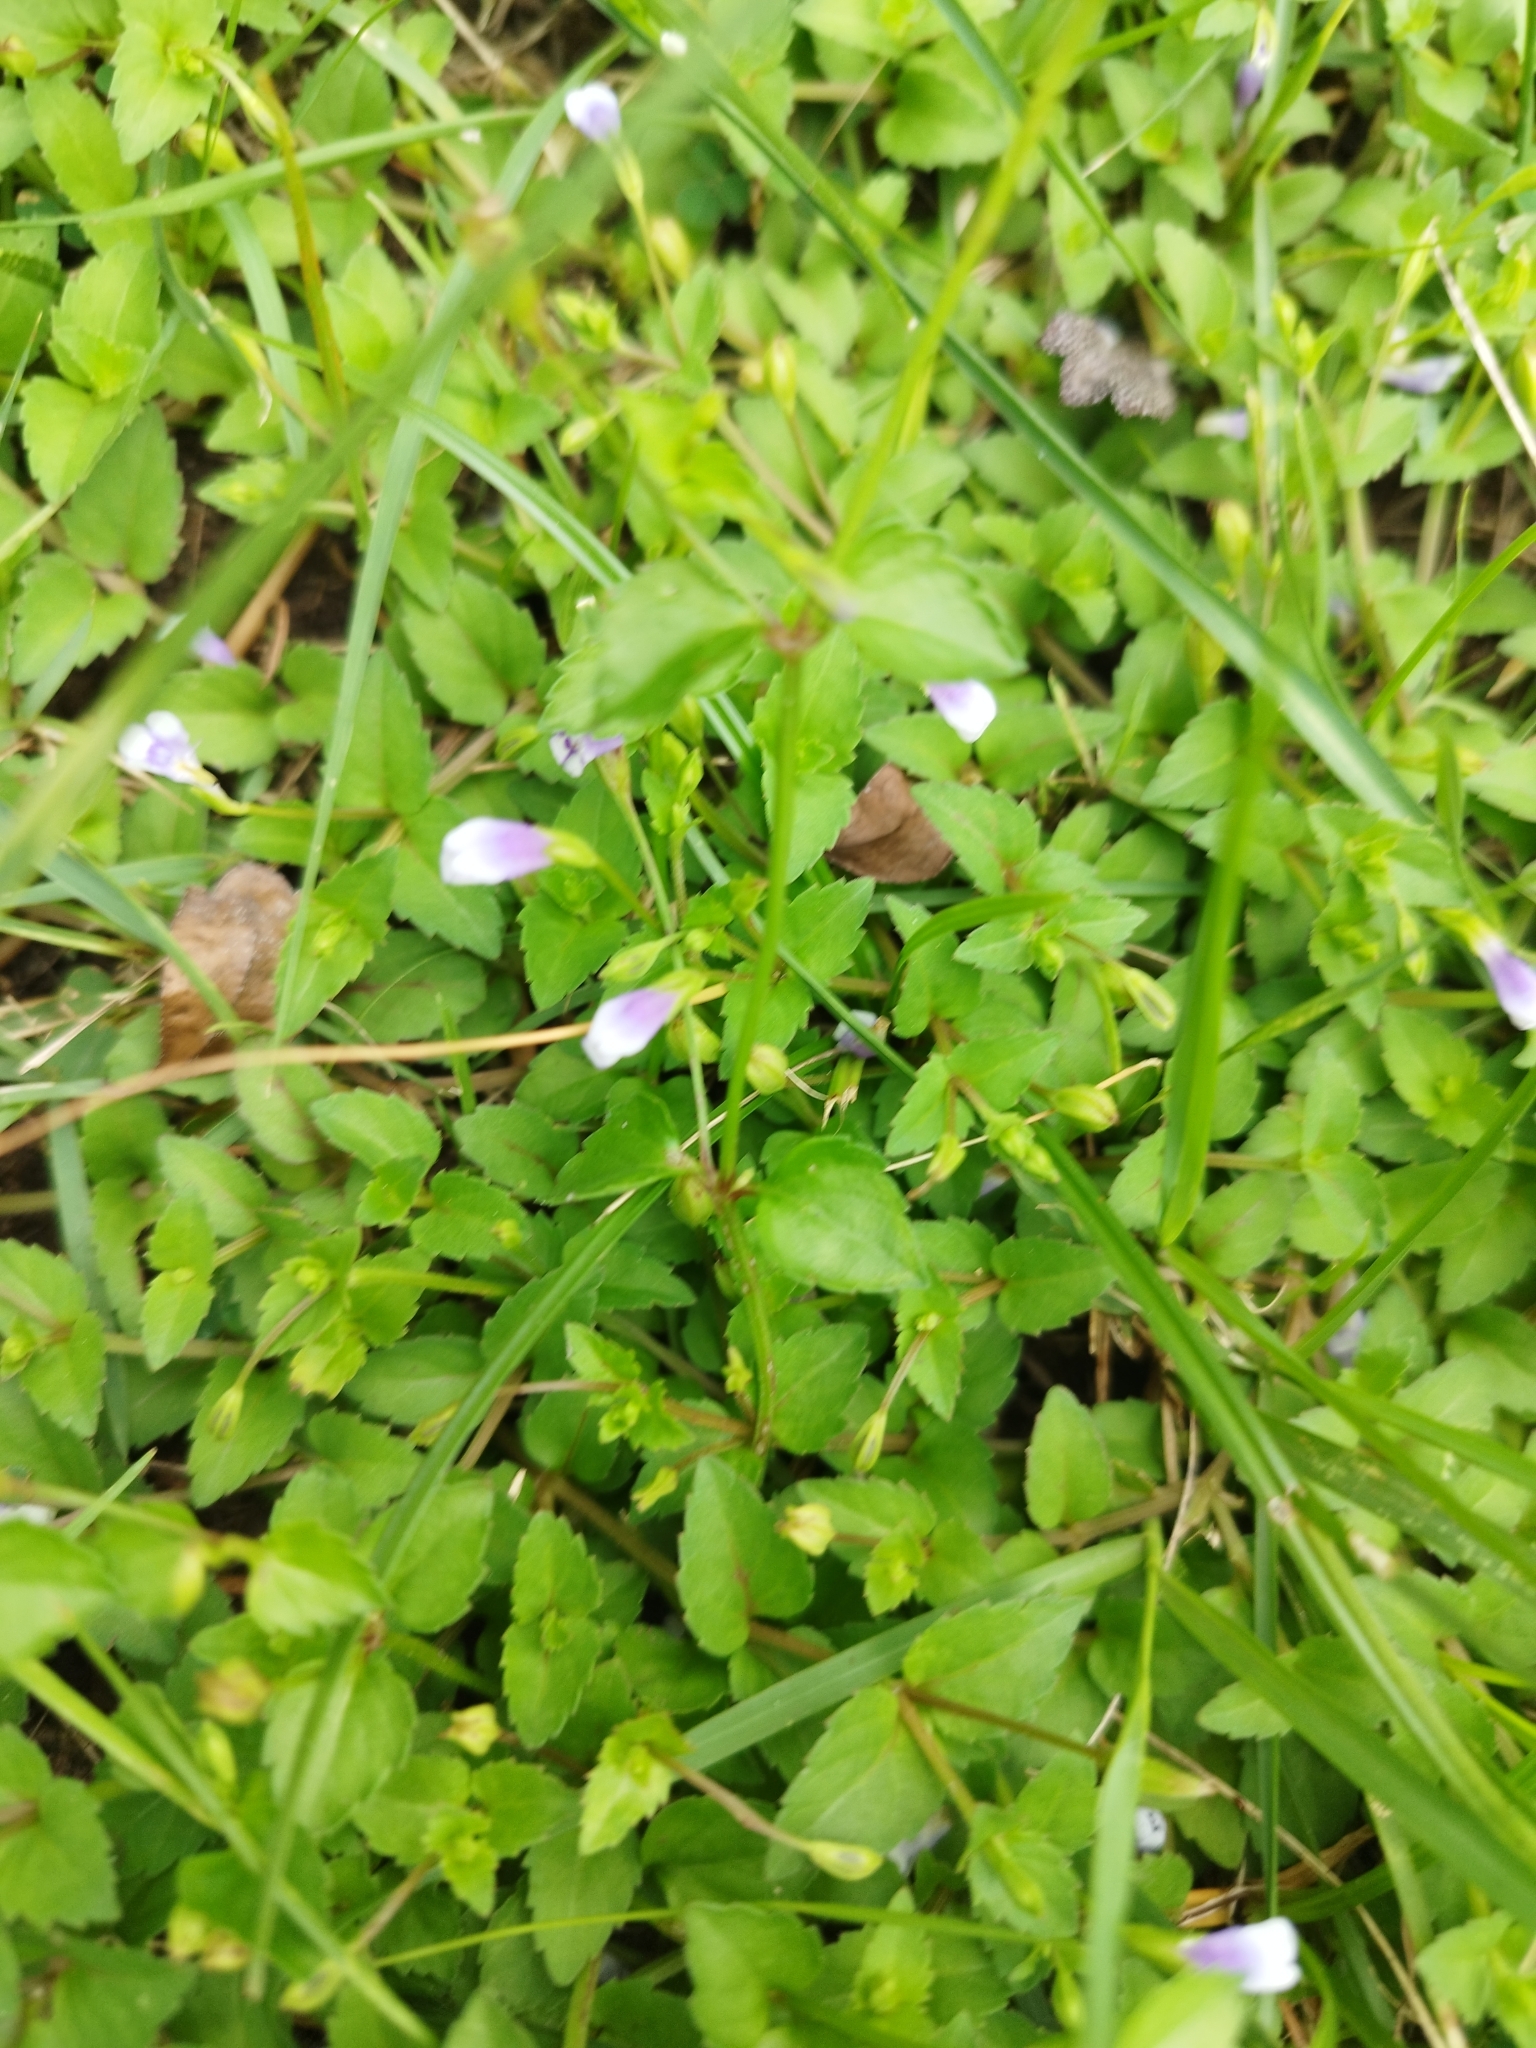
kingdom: Plantae
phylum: Tracheophyta
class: Magnoliopsida
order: Lamiales
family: Linderniaceae
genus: Torenia
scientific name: Torenia crustacea
